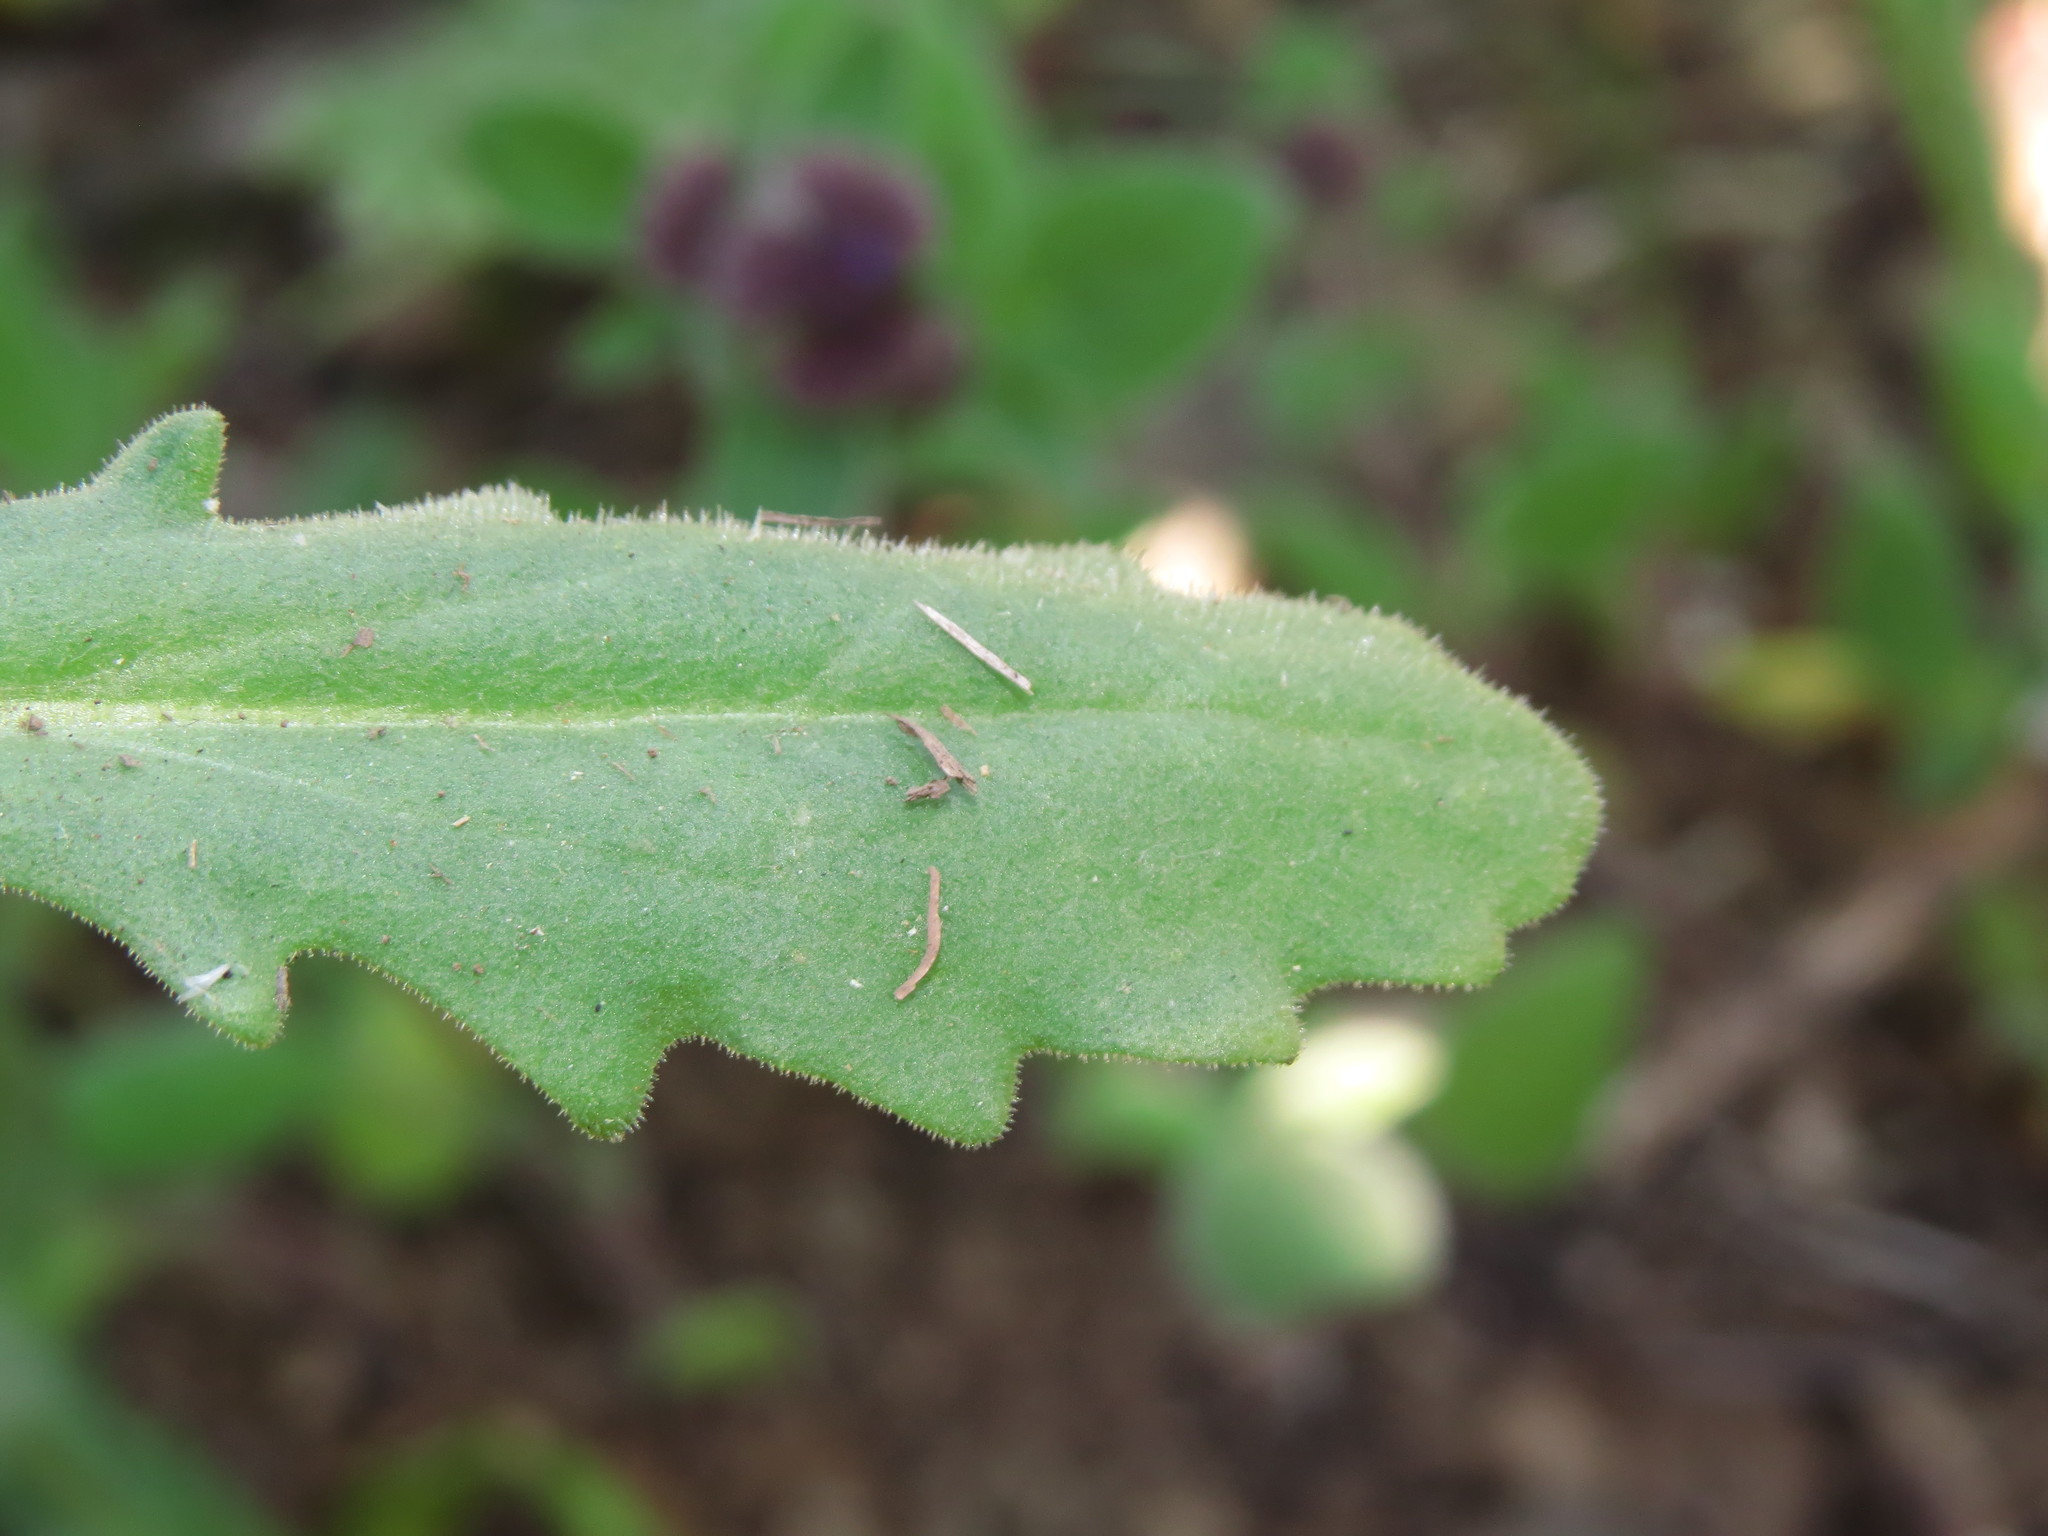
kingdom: Plantae
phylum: Tracheophyta
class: Magnoliopsida
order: Asterales
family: Asteraceae
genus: Leucheria
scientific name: Leucheria glandulosa
